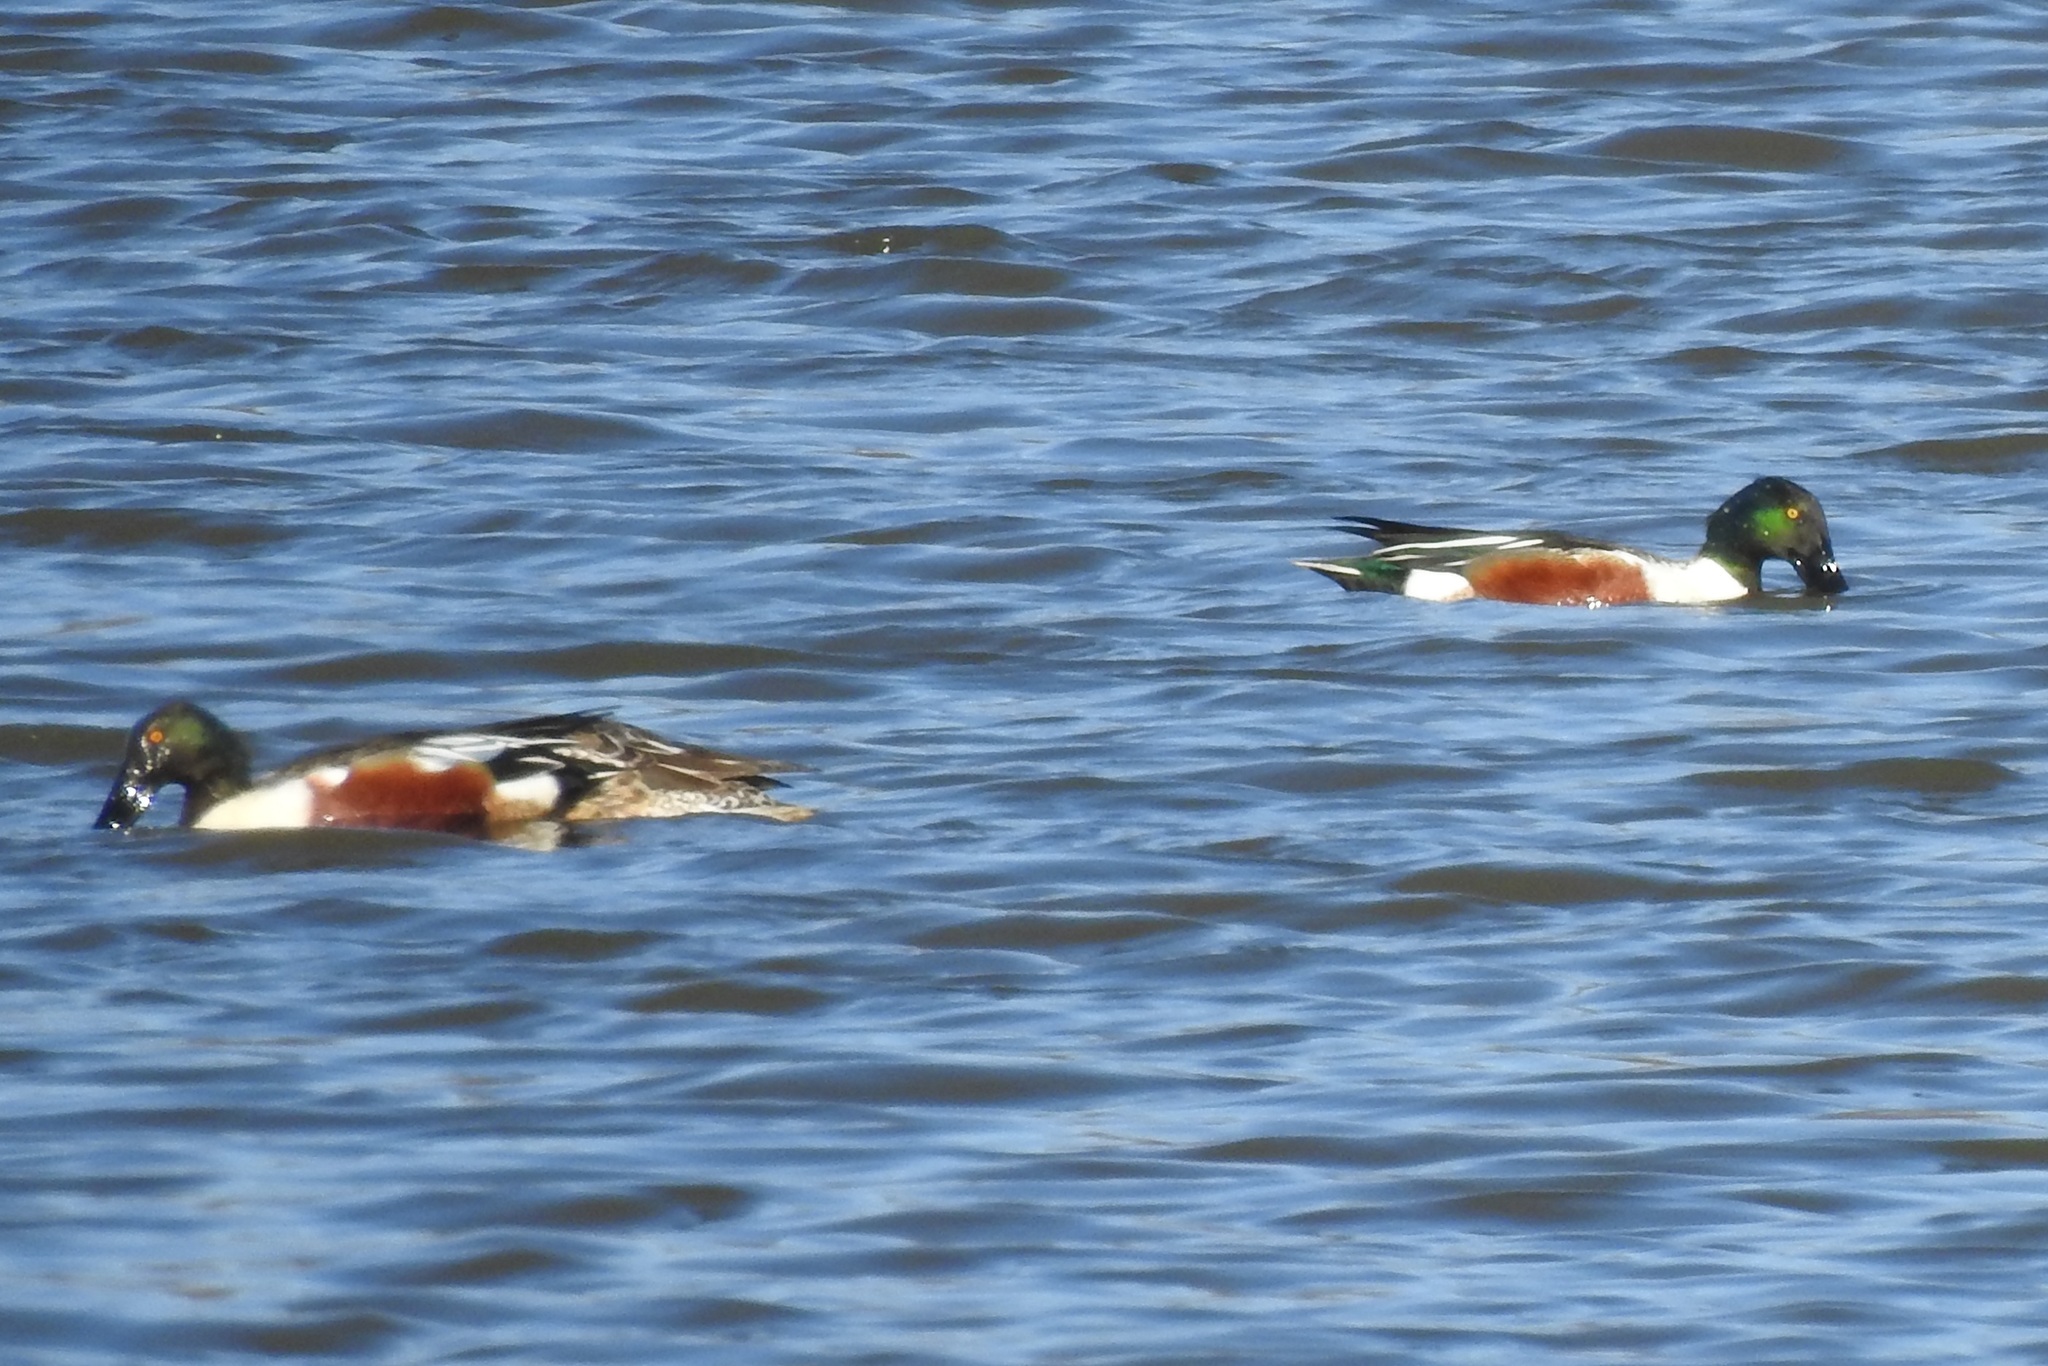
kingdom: Animalia
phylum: Chordata
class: Aves
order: Anseriformes
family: Anatidae
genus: Spatula
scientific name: Spatula clypeata
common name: Northern shoveler
